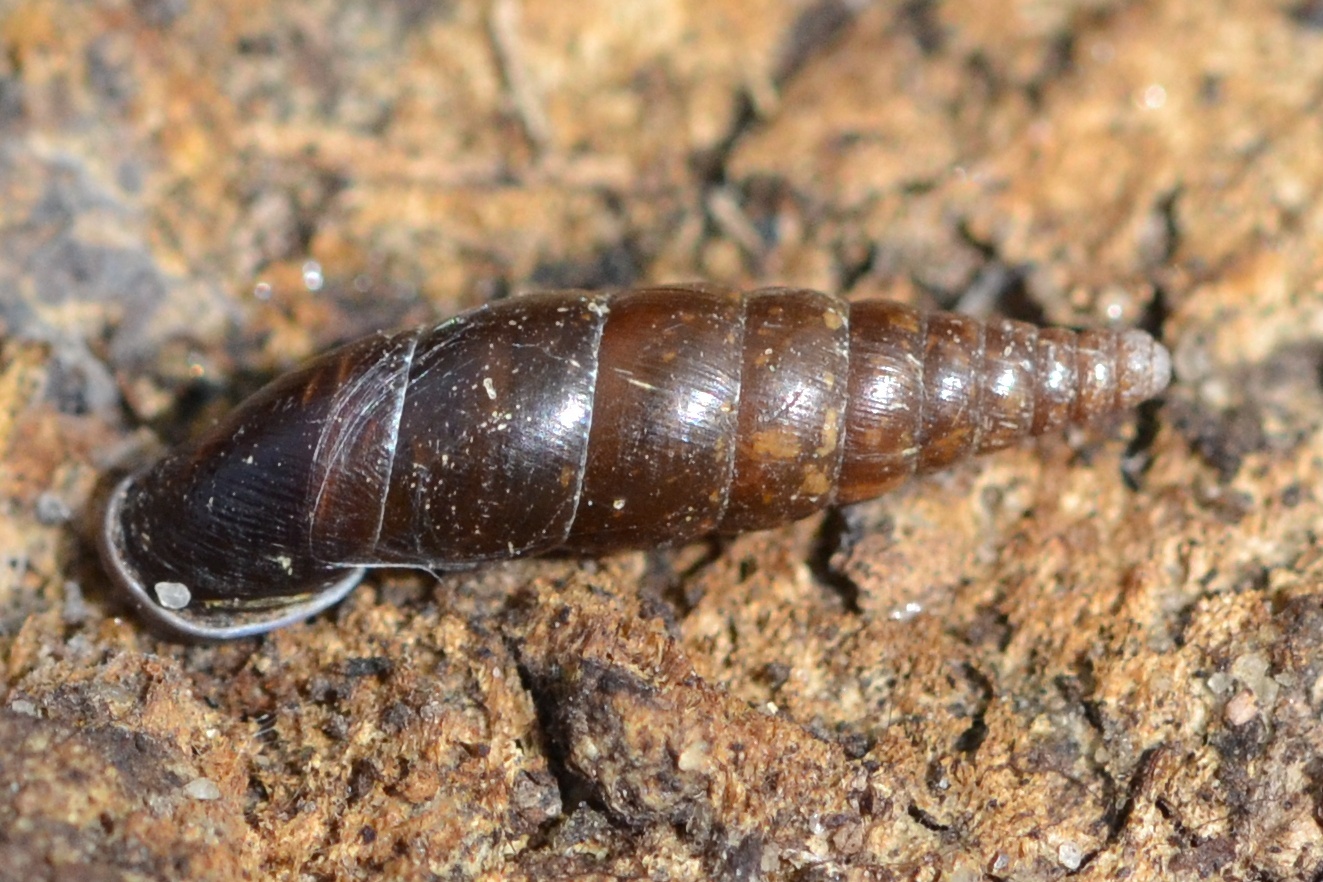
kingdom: Animalia
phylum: Mollusca
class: Gastropoda
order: Stylommatophora
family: Clausiliidae
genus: Cochlodina
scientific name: Cochlodina laminata
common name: Plaited door snail
